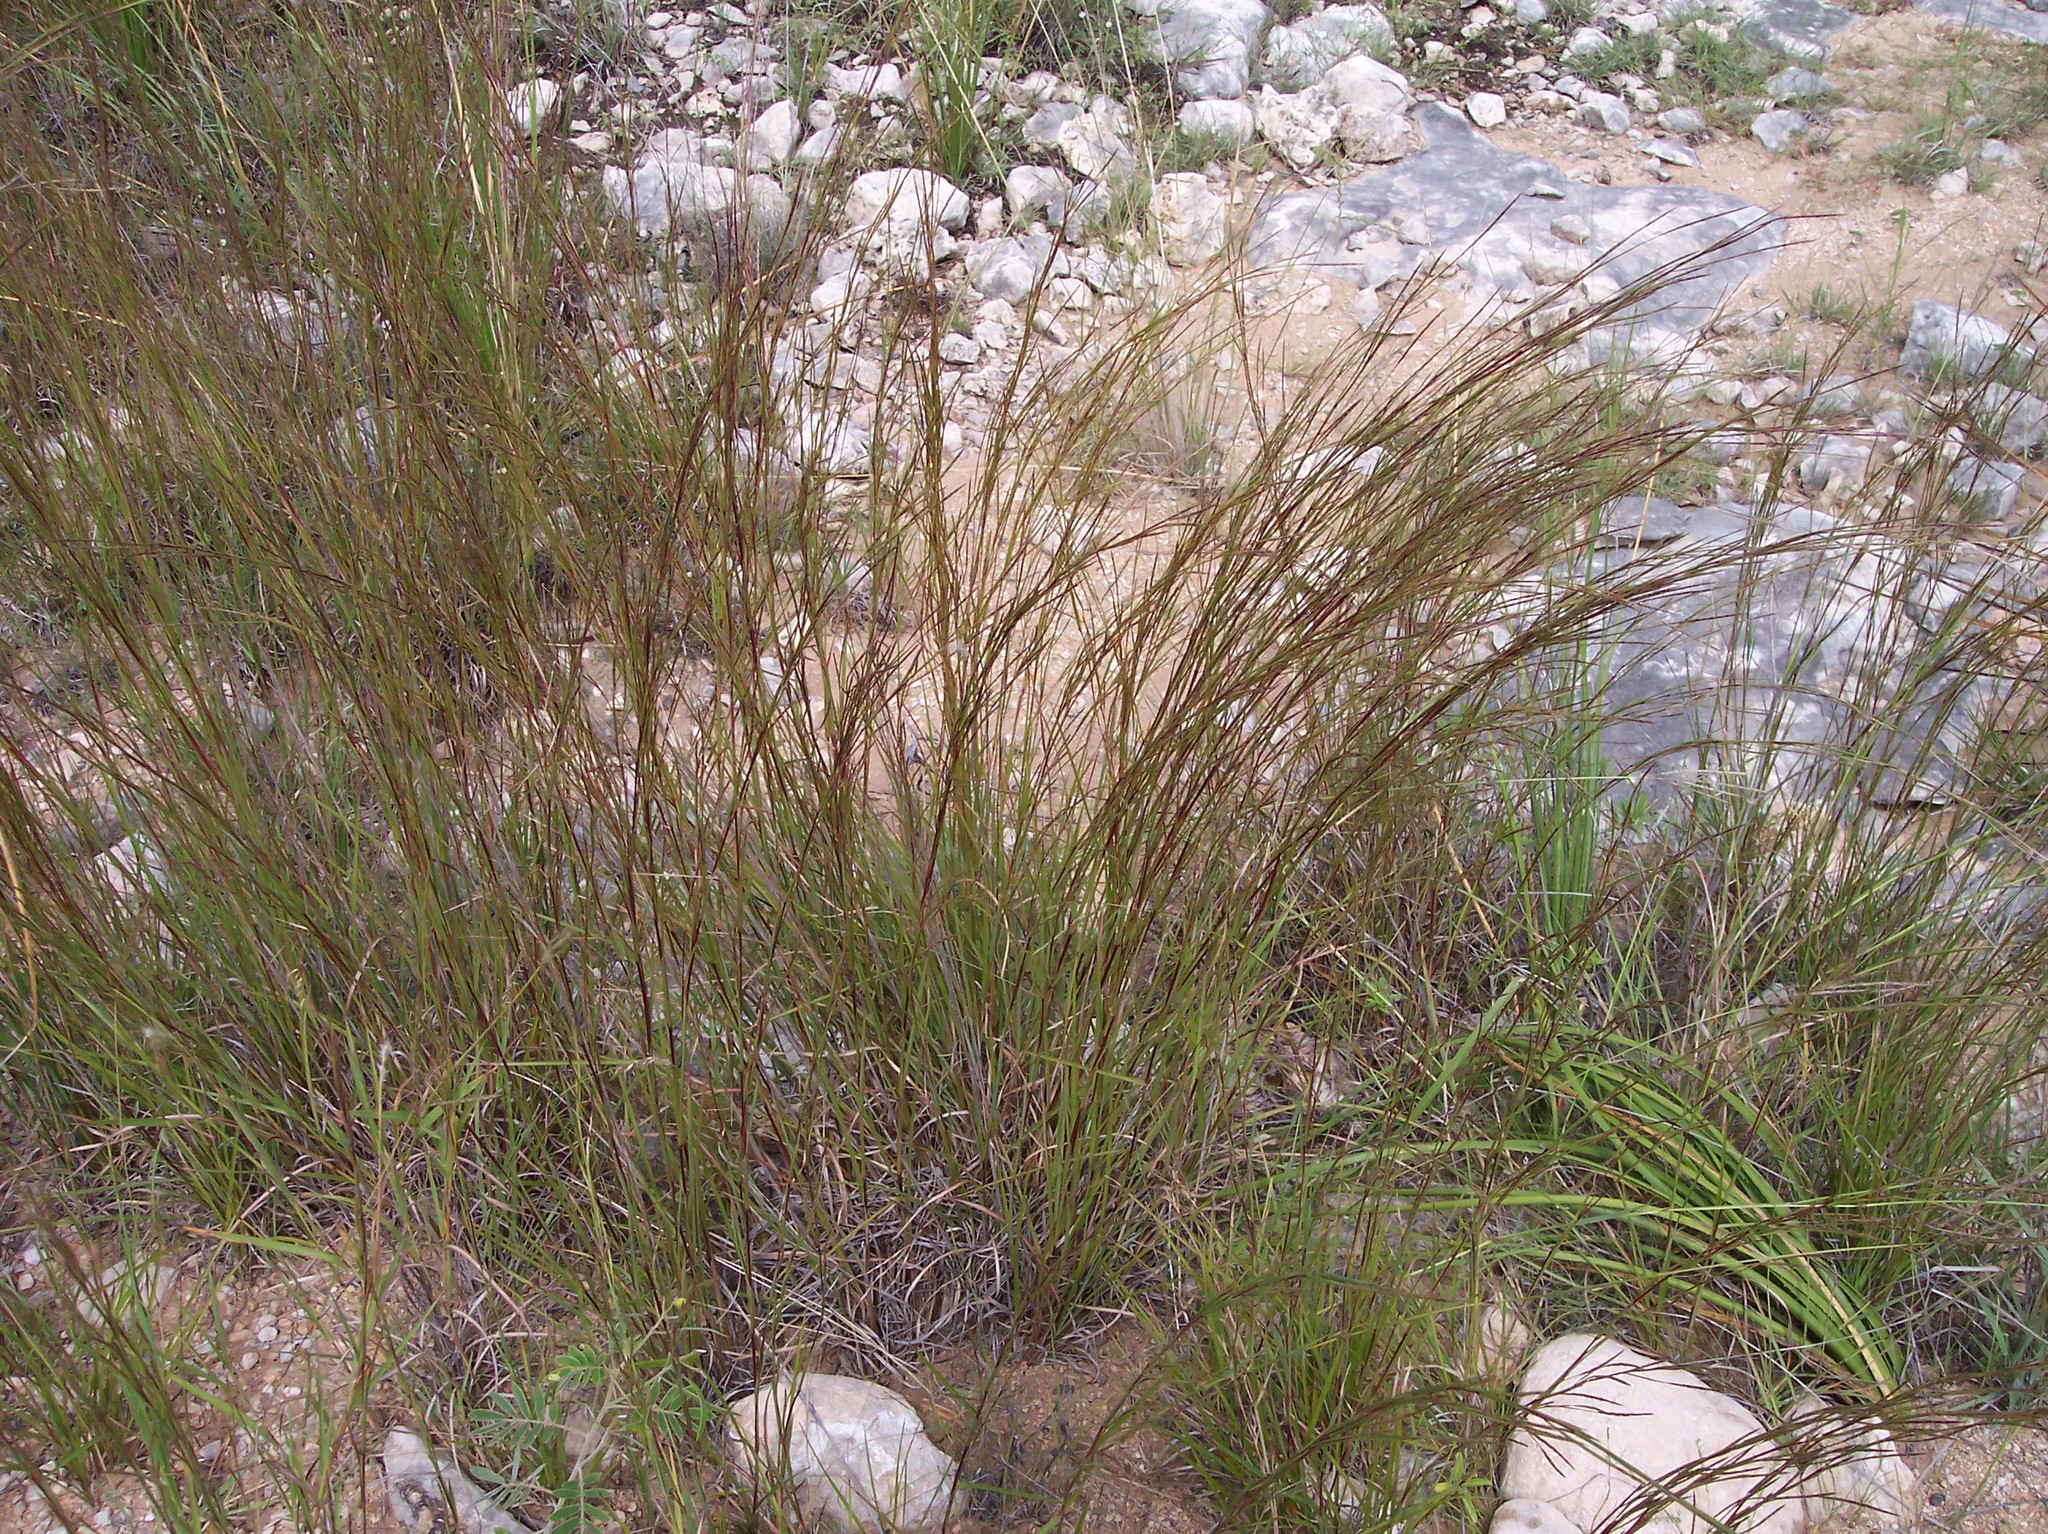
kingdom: Plantae
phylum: Tracheophyta
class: Liliopsida
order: Poales
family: Poaceae
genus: Schizachyrium
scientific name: Schizachyrium scoparium
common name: Little bluestem
